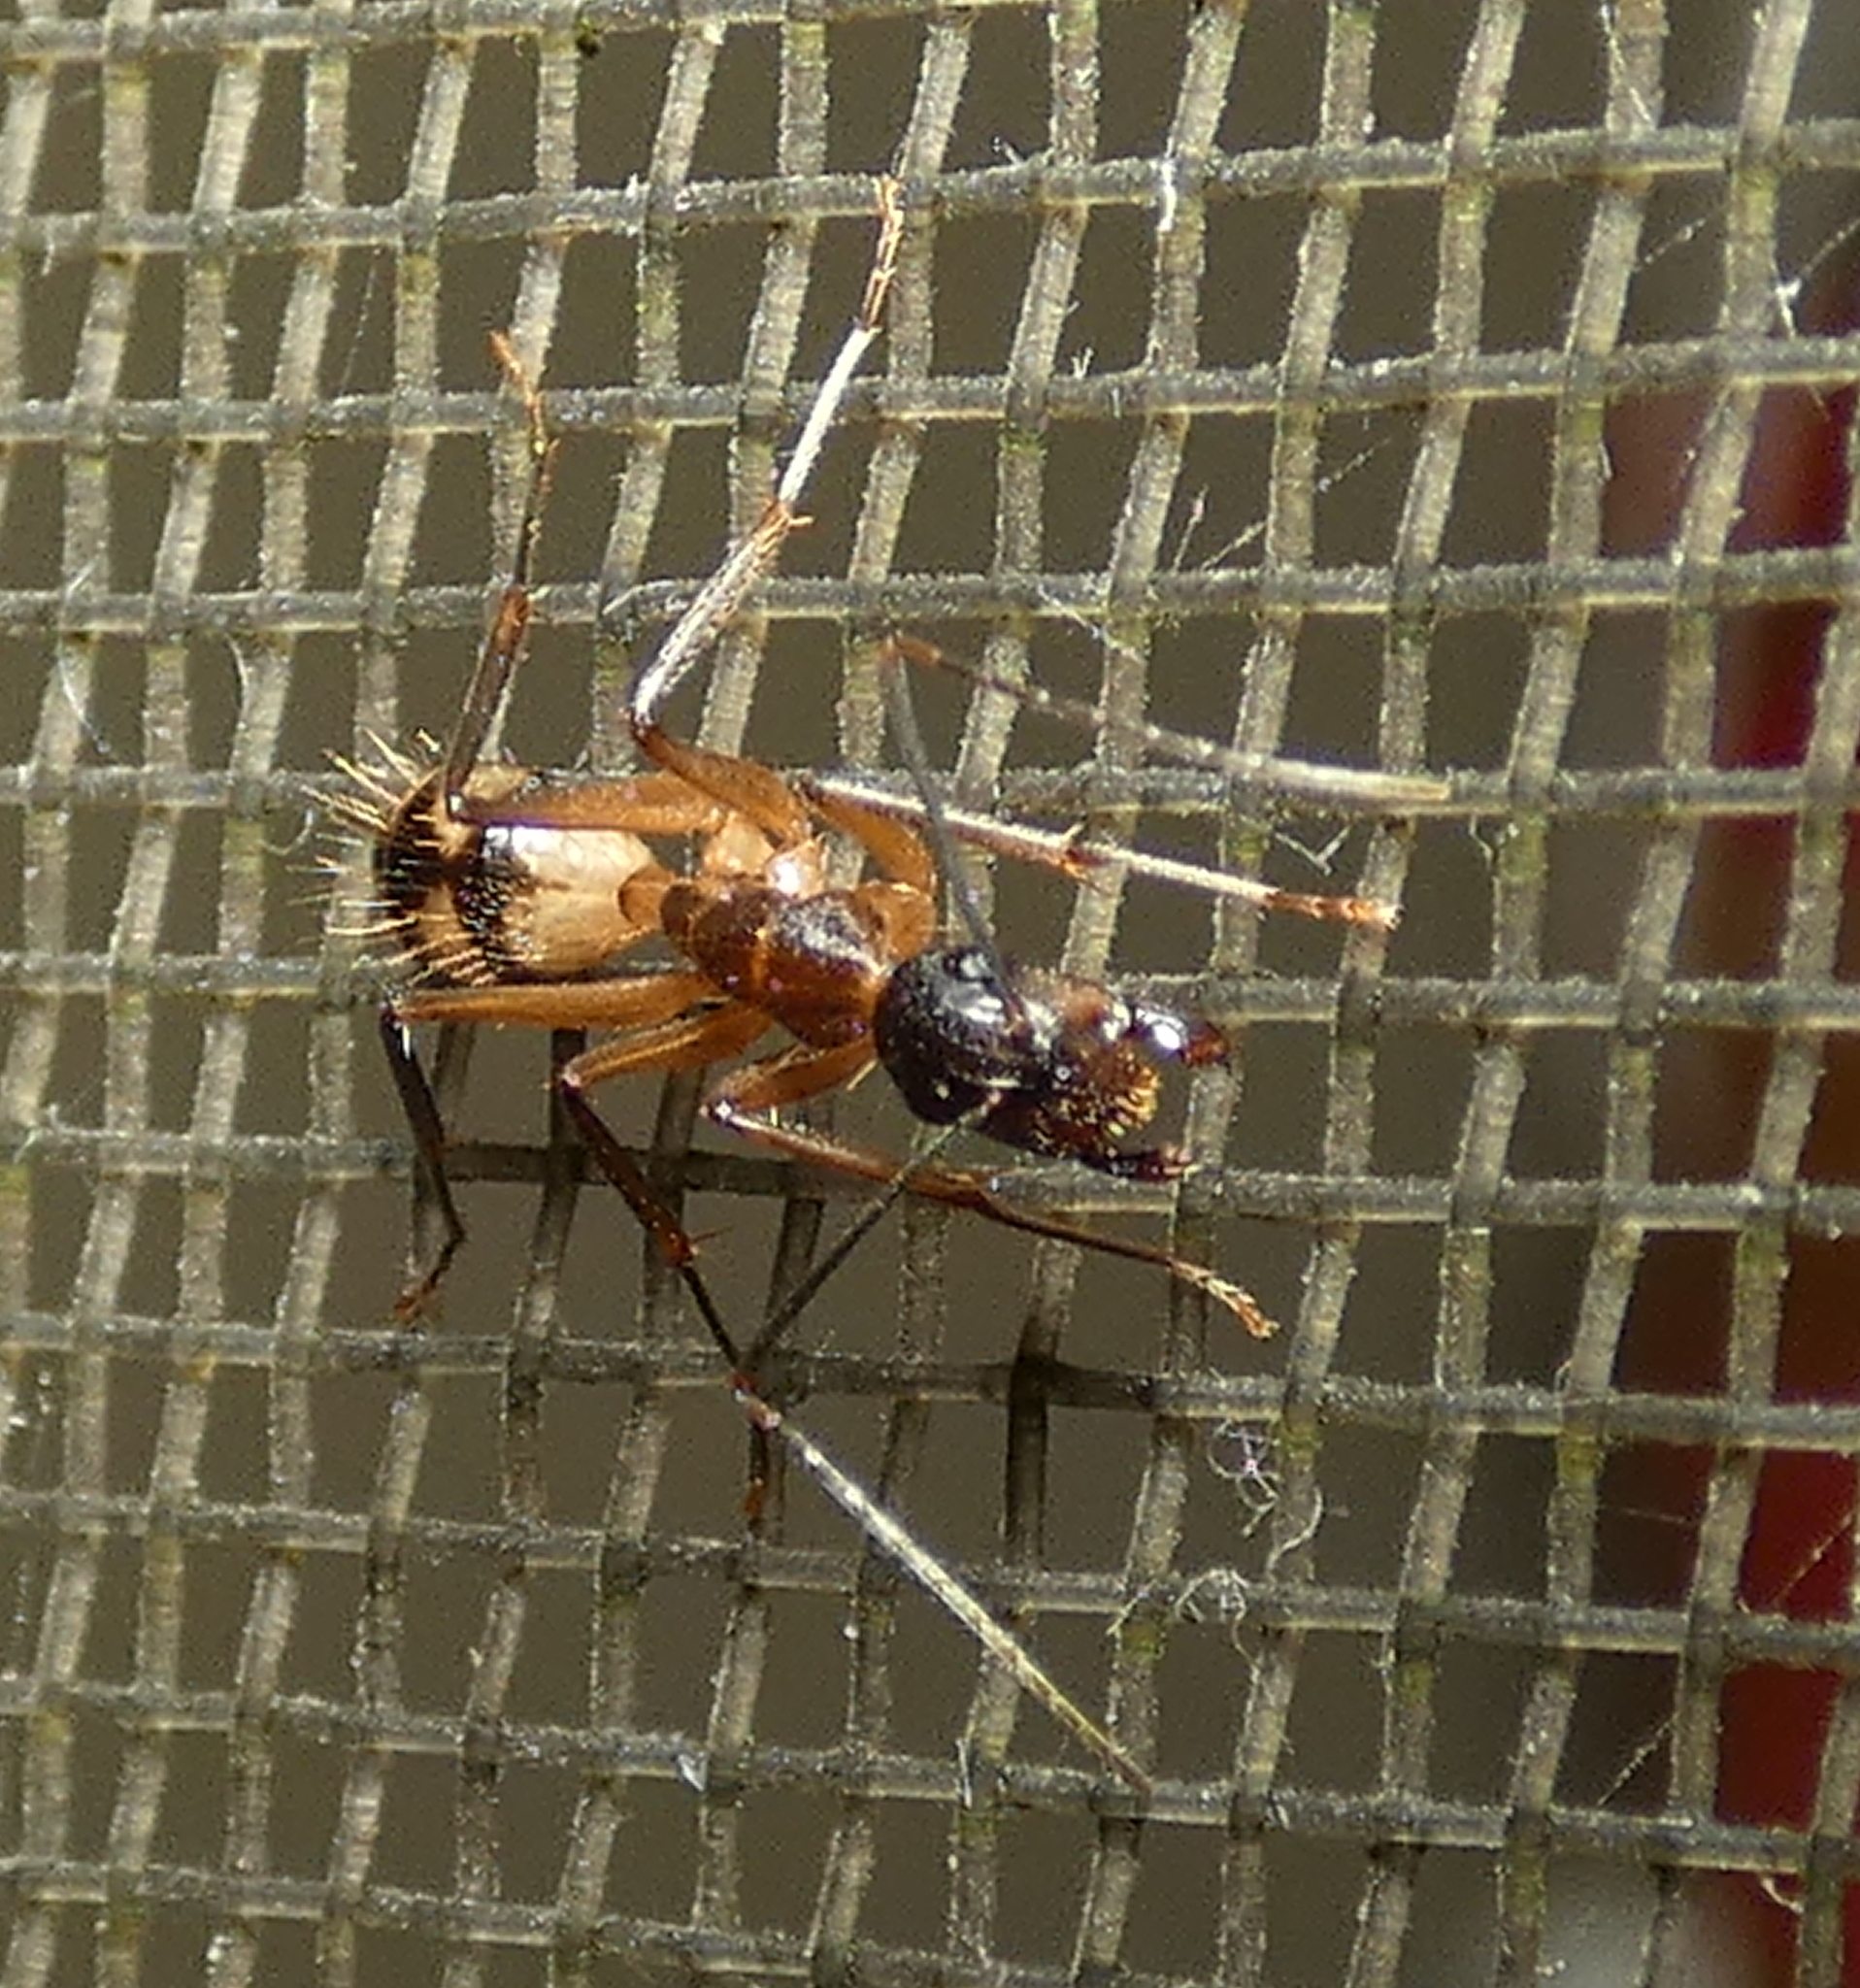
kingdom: Animalia
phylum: Arthropoda
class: Insecta
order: Hymenoptera
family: Formicidae
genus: Camponotus
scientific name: Camponotus substitutus
